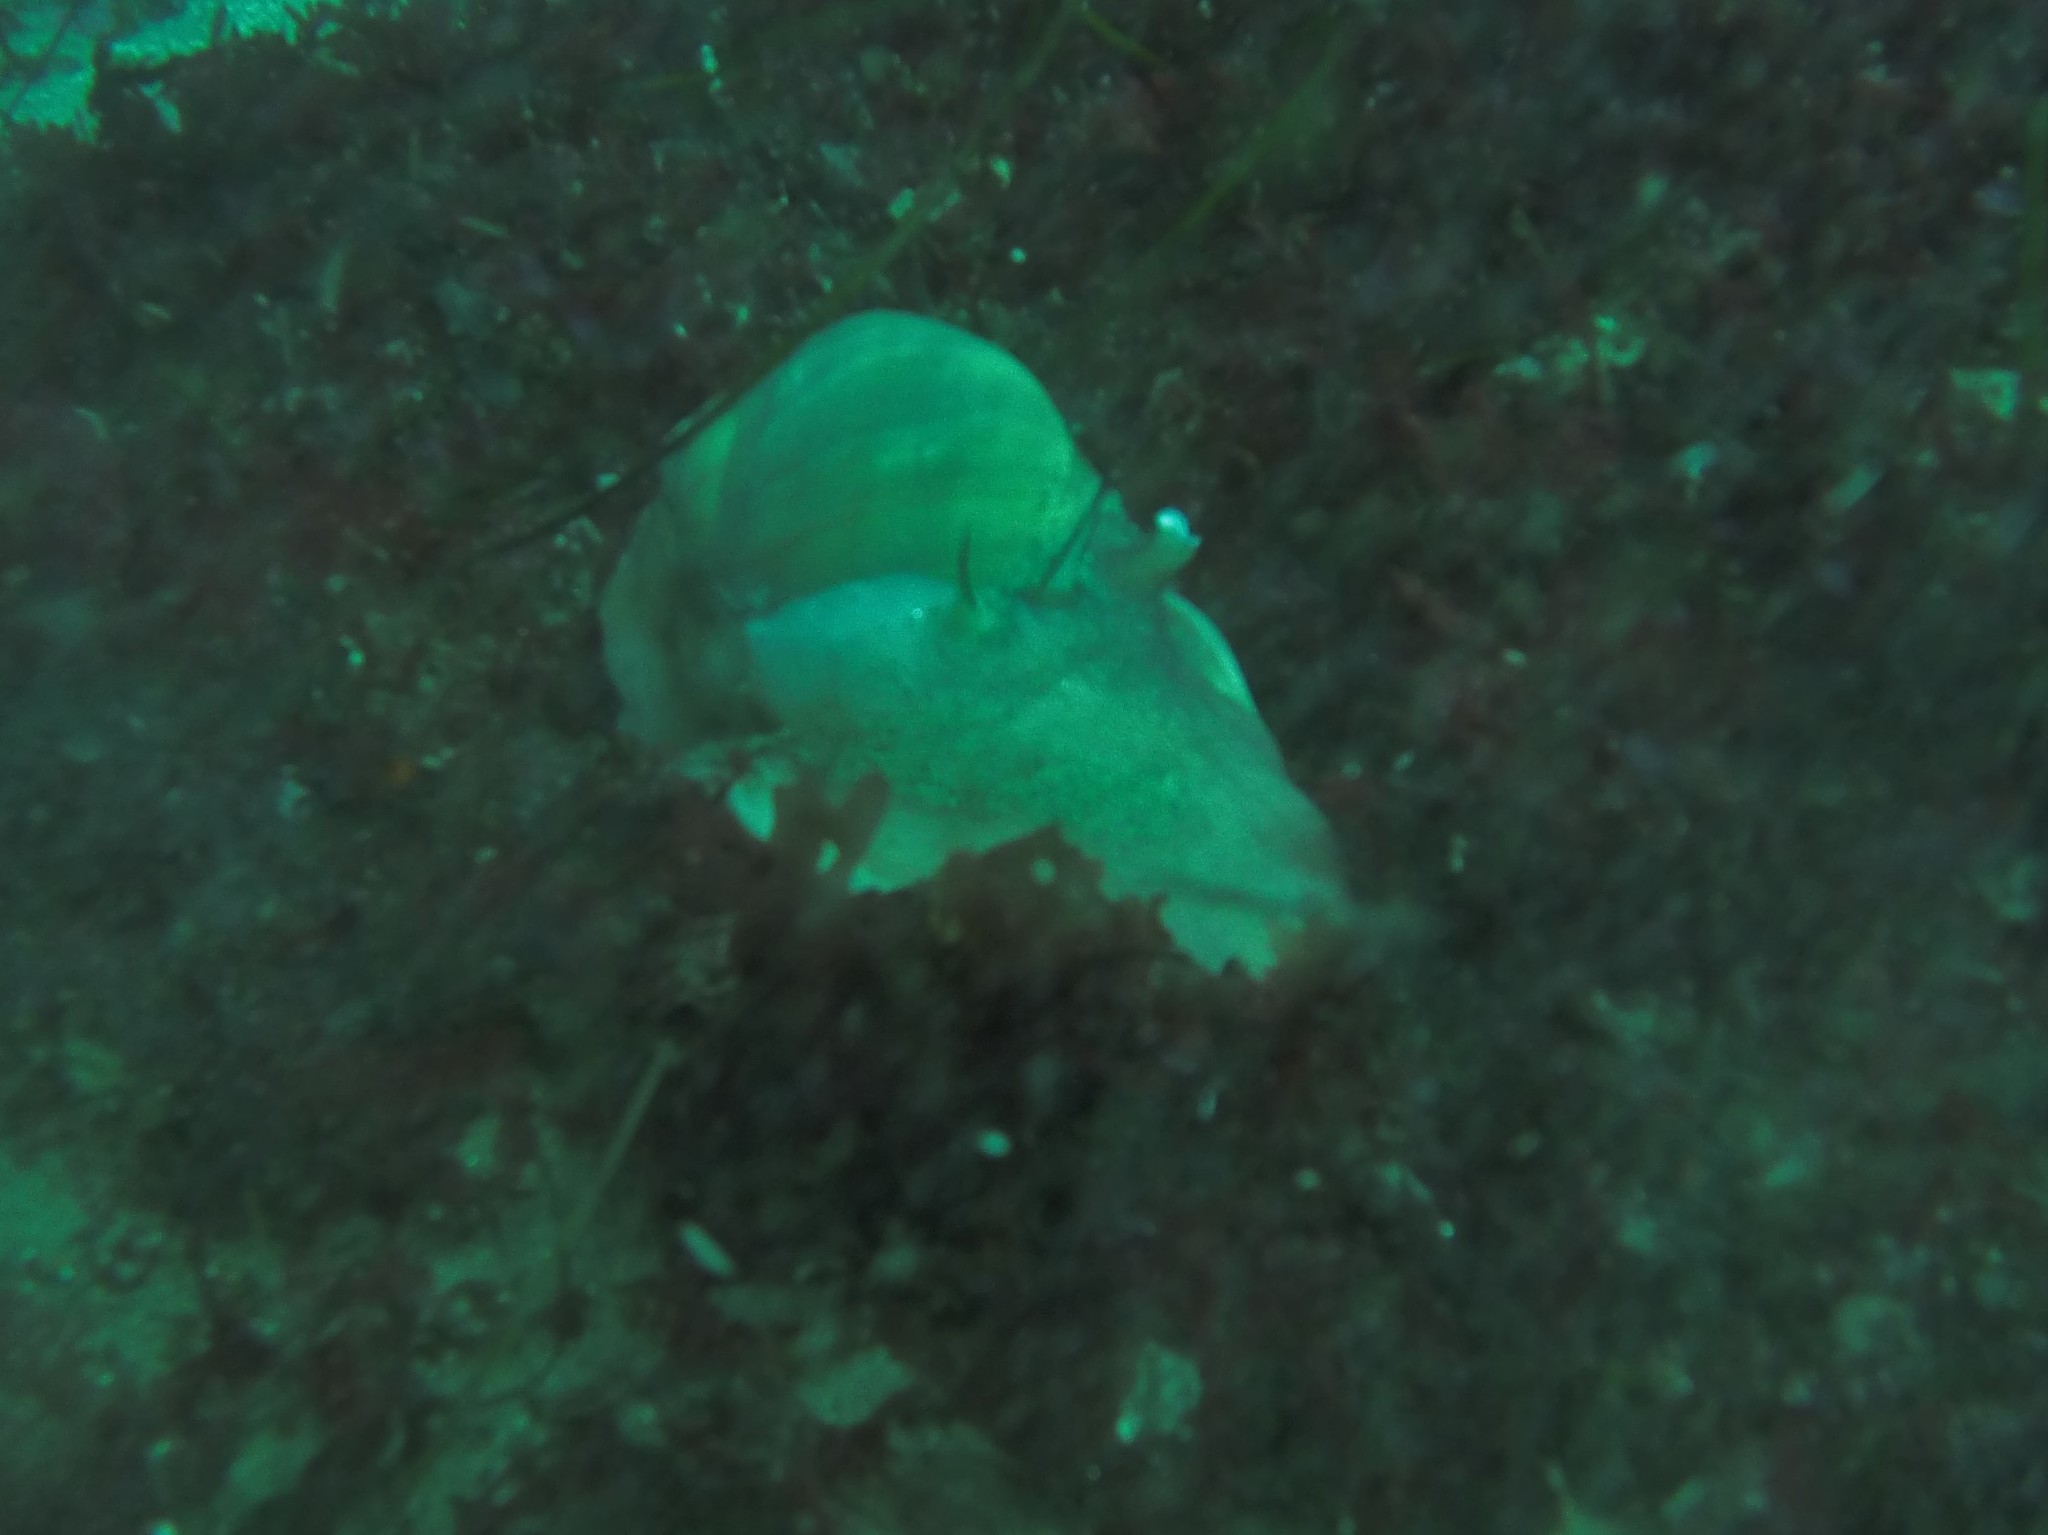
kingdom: Animalia
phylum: Mollusca
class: Gastropoda
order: Littorinimorpha
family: Naticidae
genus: Neverita
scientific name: Neverita lewisii
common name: Lewis' moonsnail
